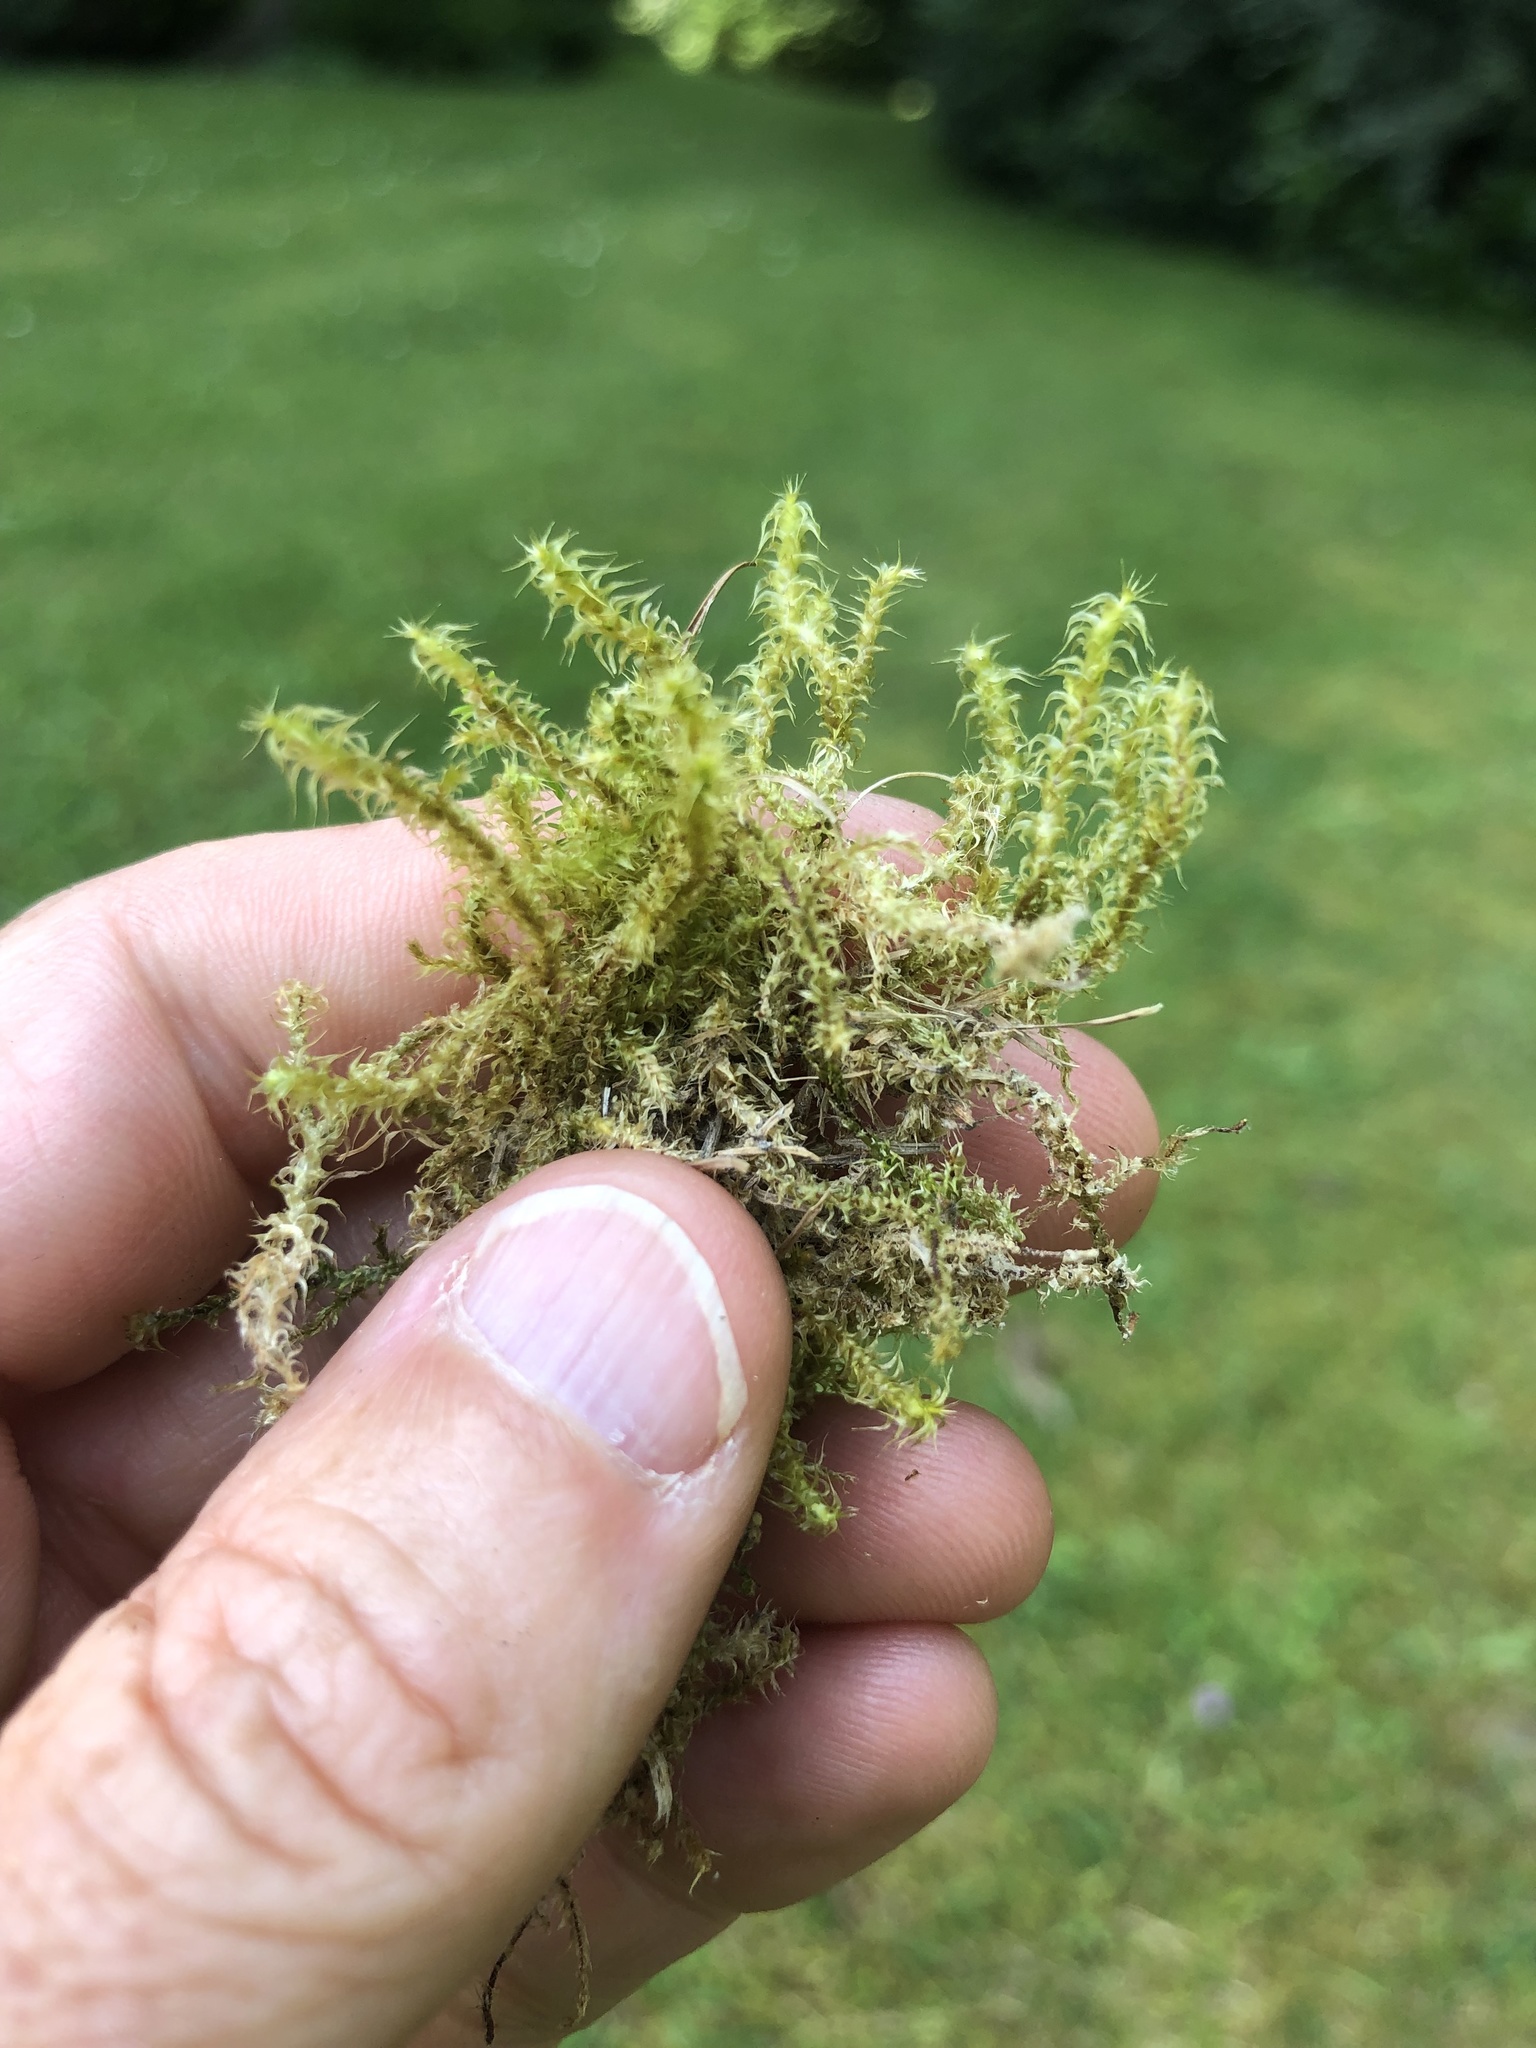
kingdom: Plantae
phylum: Bryophyta
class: Bryopsida
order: Hypnales
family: Hylocomiaceae
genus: Rhytidiadelphus
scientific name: Rhytidiadelphus squarrosus
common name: Springy turf-moss
